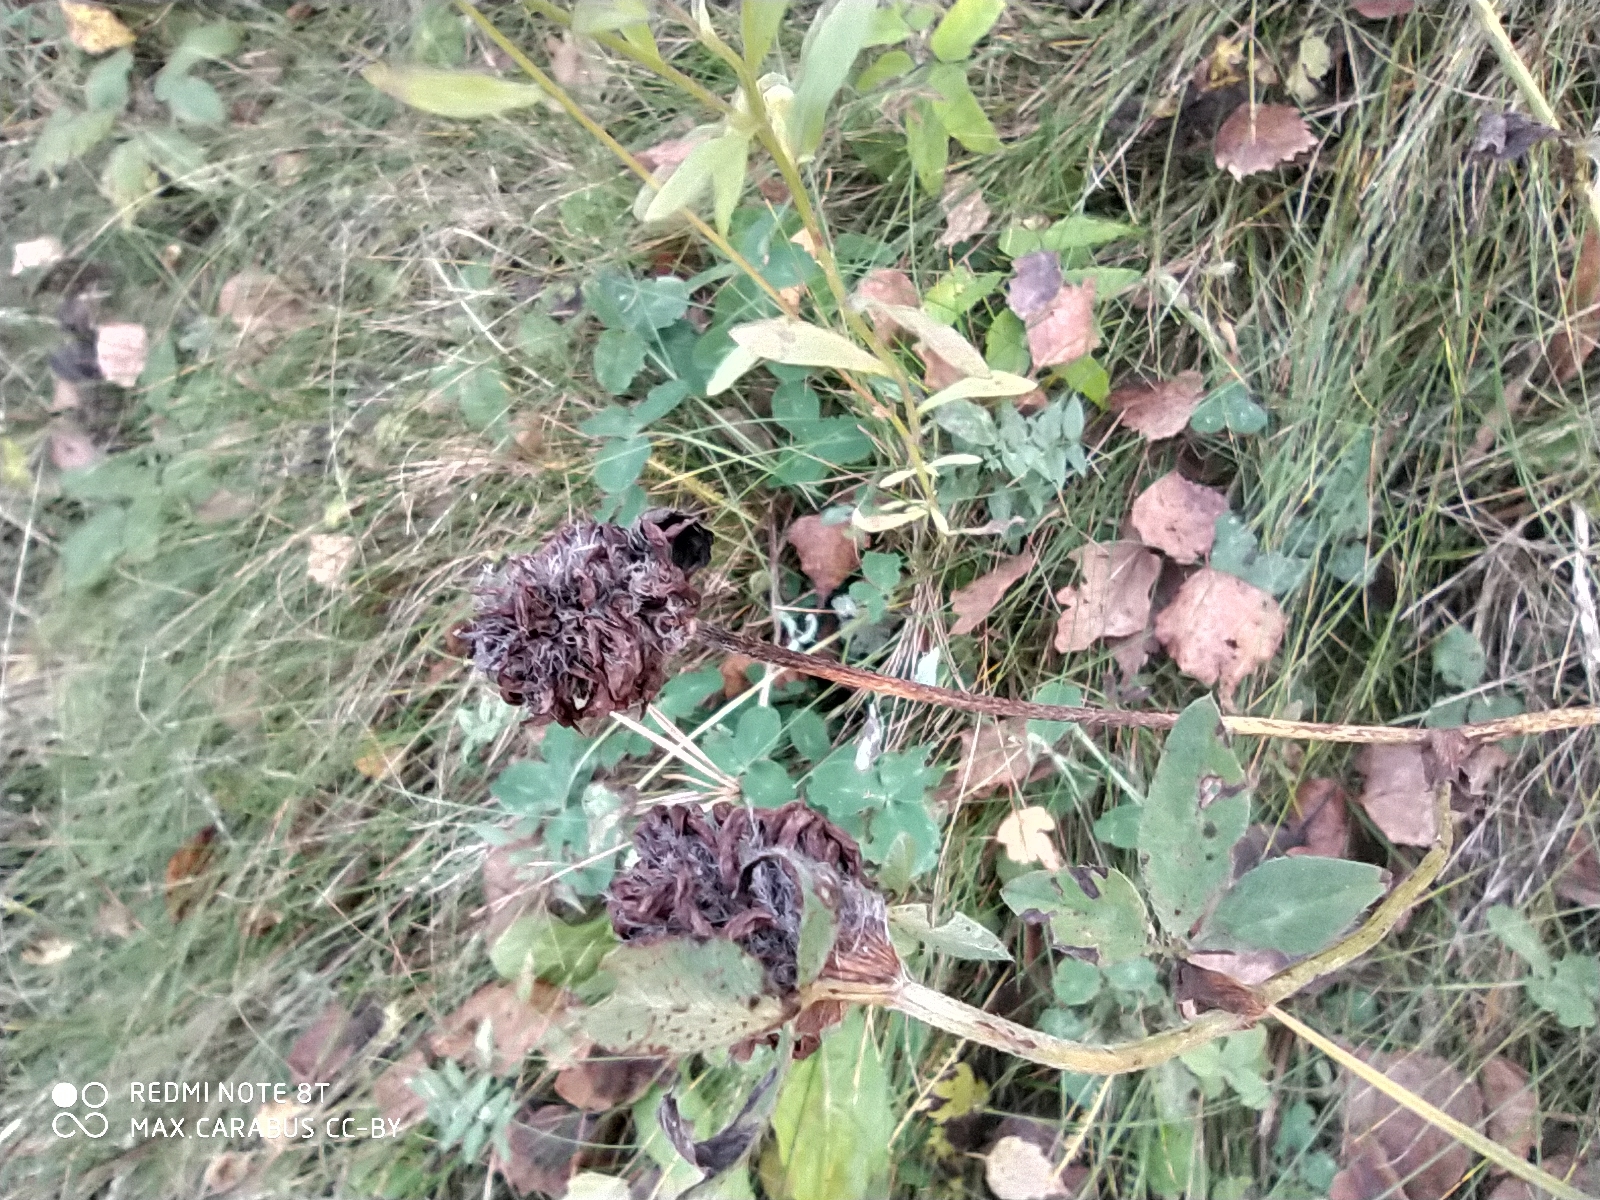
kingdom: Plantae
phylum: Tracheophyta
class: Magnoliopsida
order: Fabales
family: Fabaceae
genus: Trifolium
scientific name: Trifolium pratense
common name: Red clover
